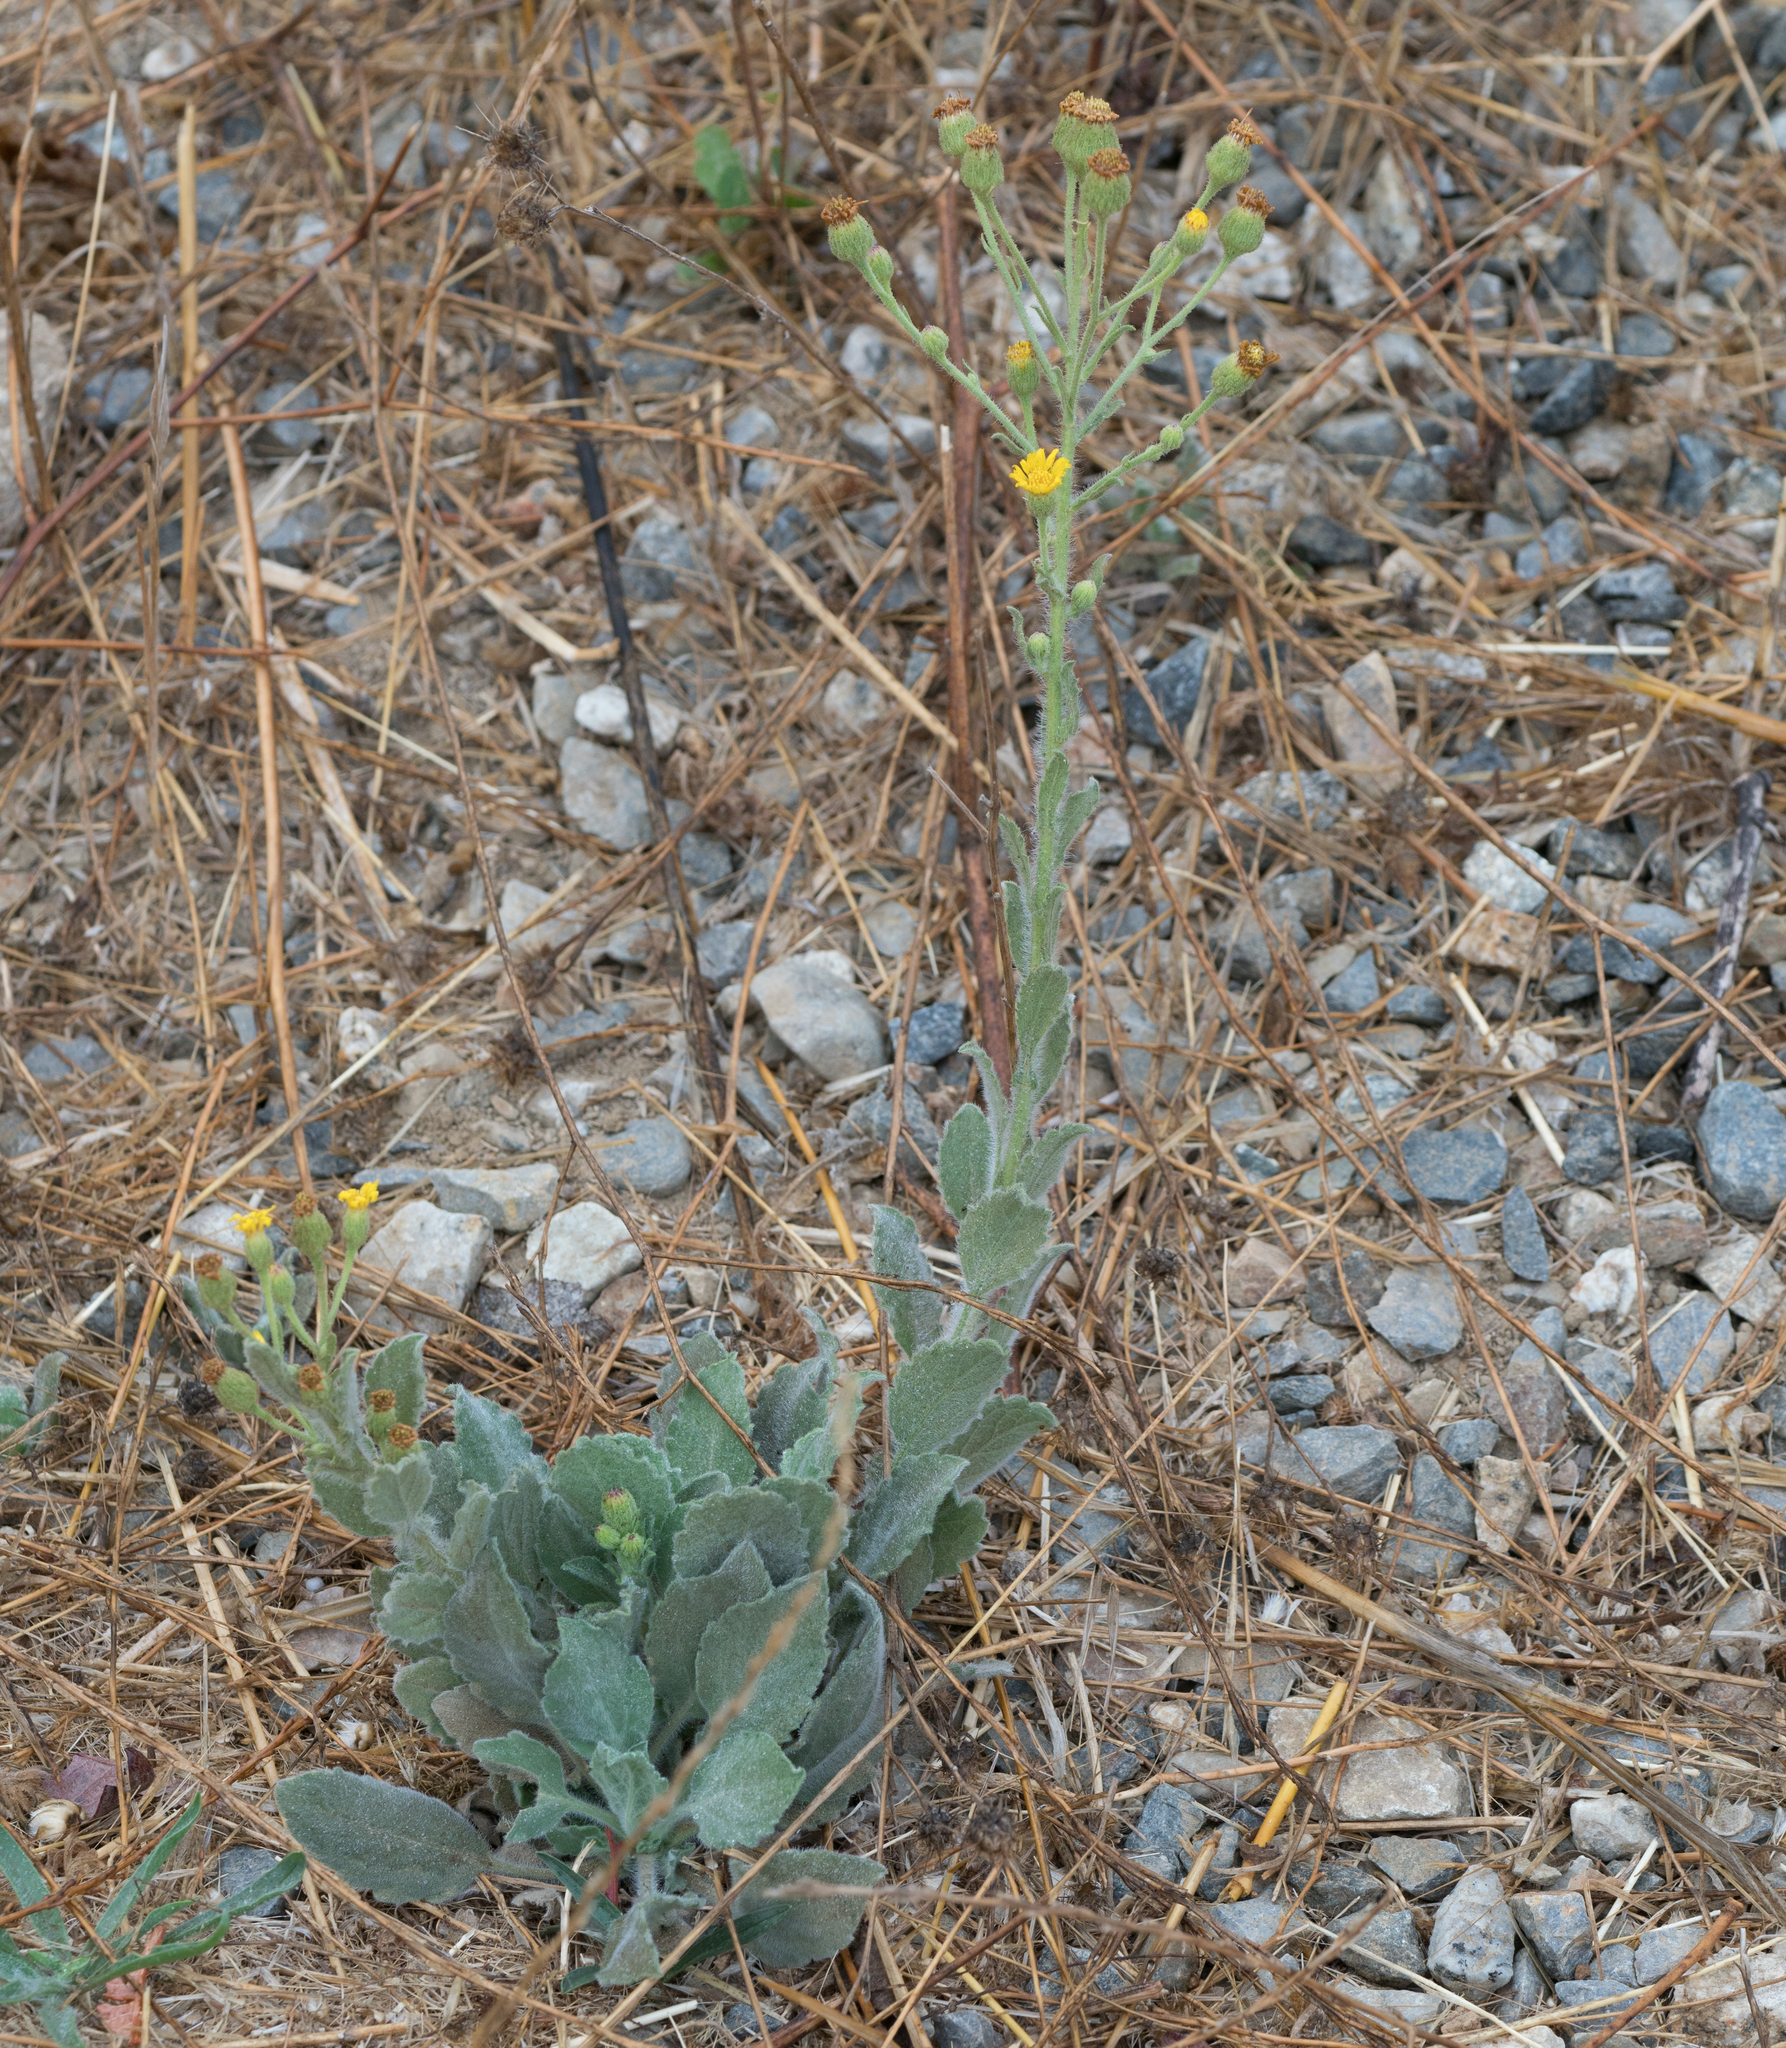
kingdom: Plantae
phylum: Tracheophyta
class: Magnoliopsida
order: Asterales
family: Asteraceae
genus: Heterotheca
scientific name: Heterotheca grandiflora
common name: Telegraphweed
